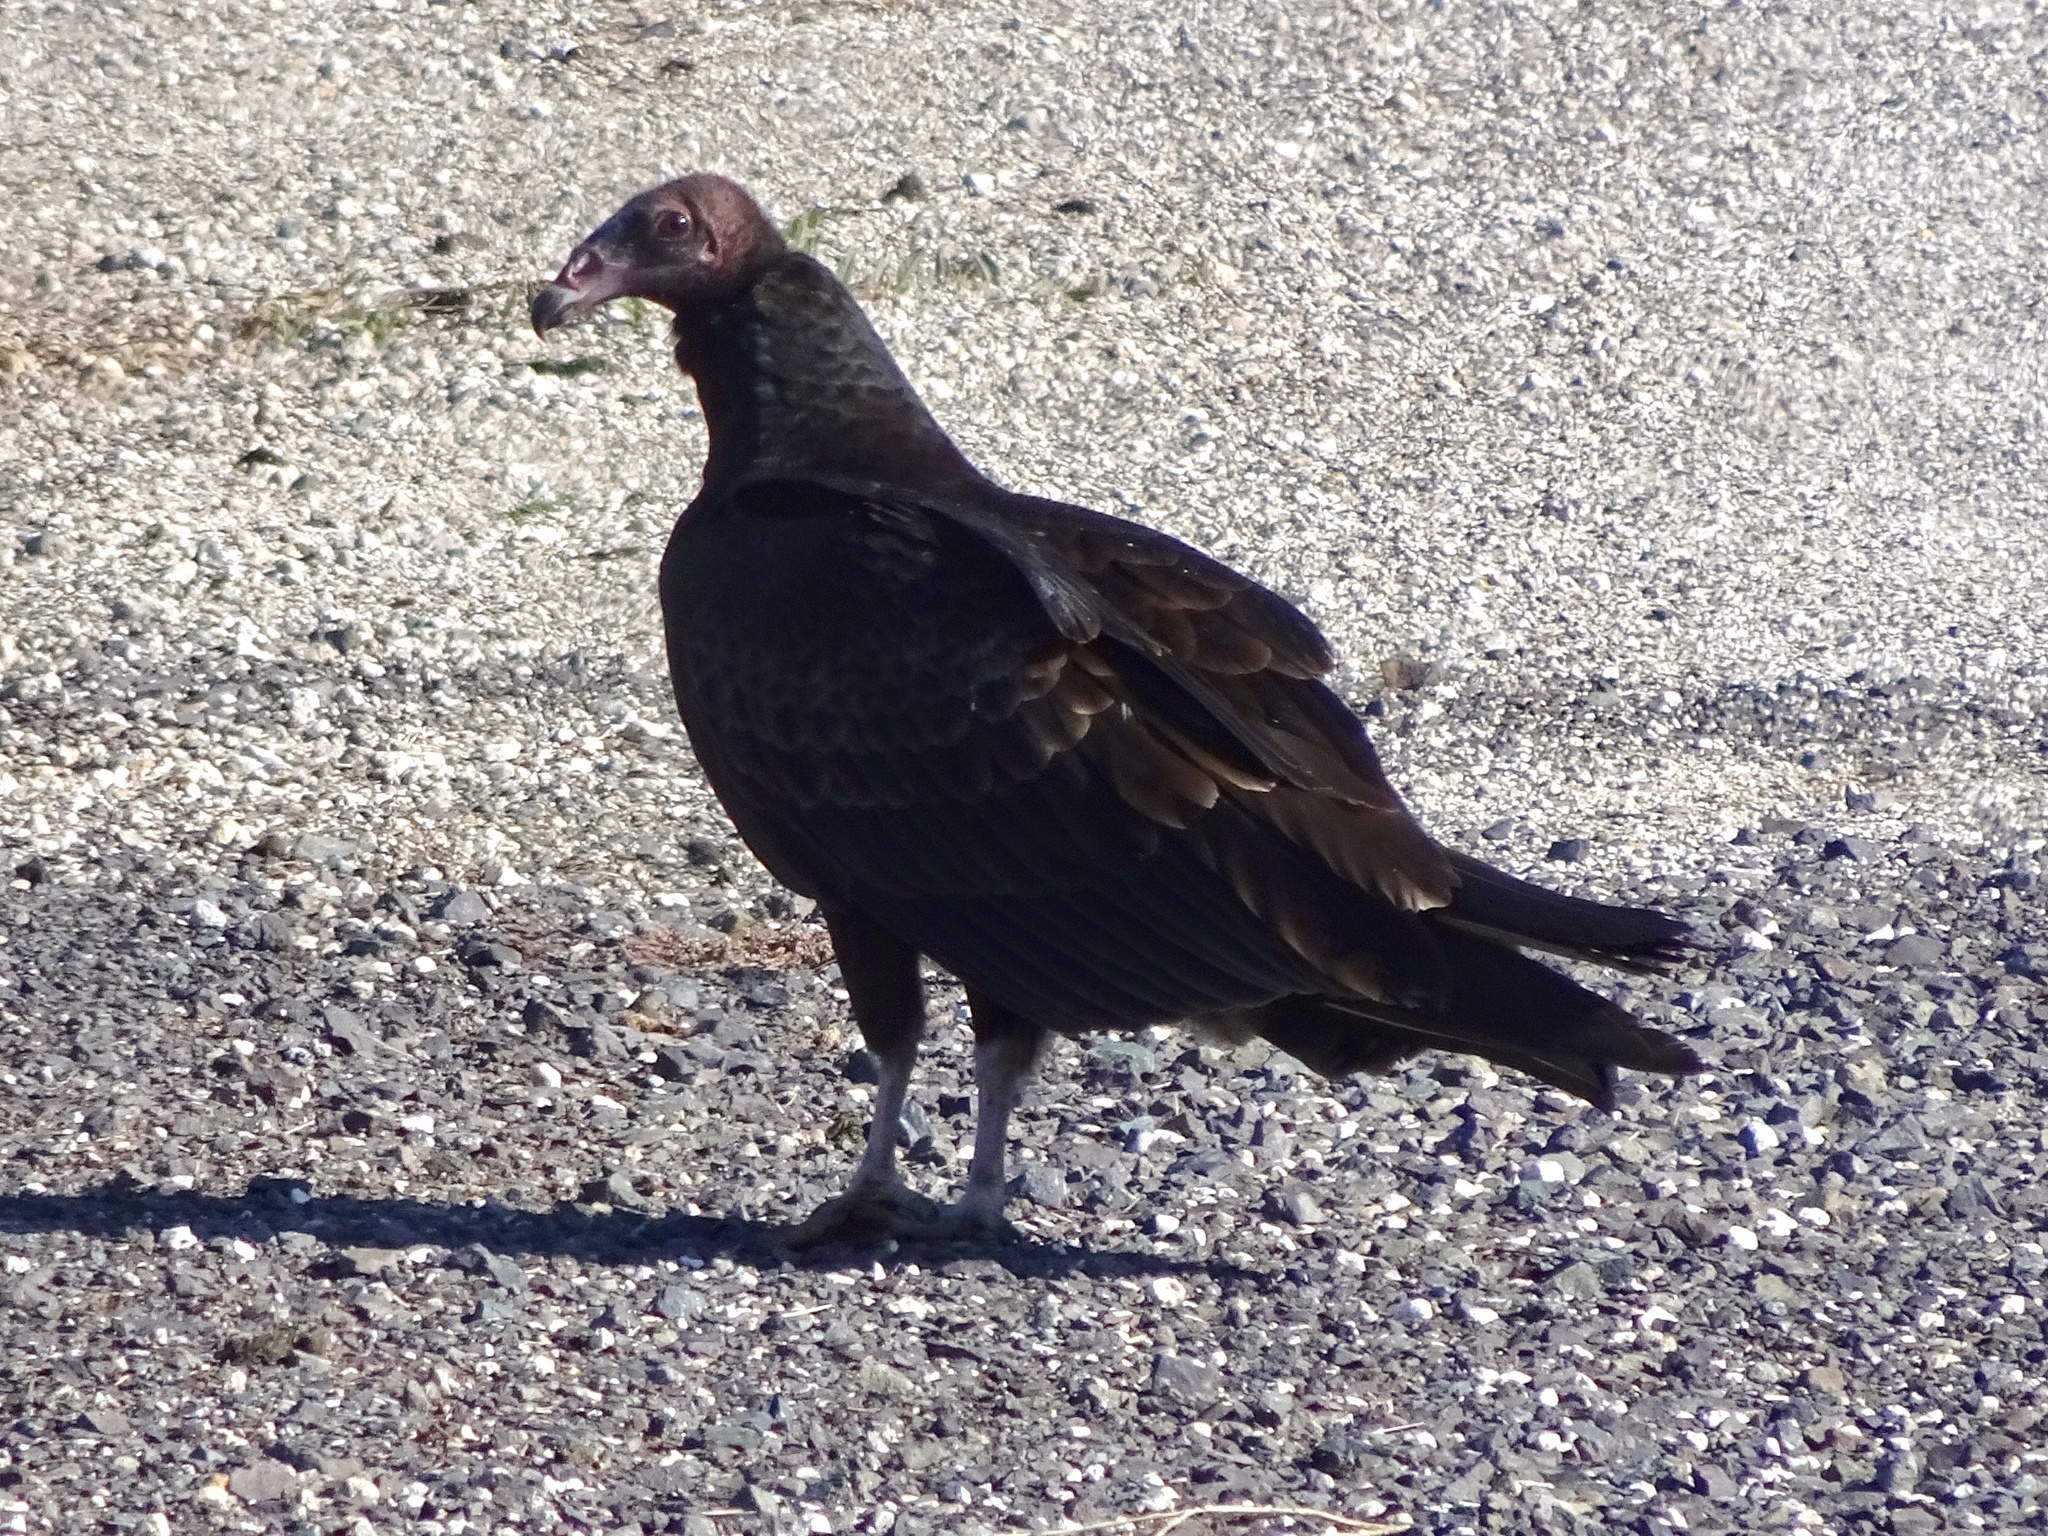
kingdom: Animalia
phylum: Chordata
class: Aves
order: Accipitriformes
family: Cathartidae
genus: Cathartes
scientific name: Cathartes aura
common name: Turkey vulture
